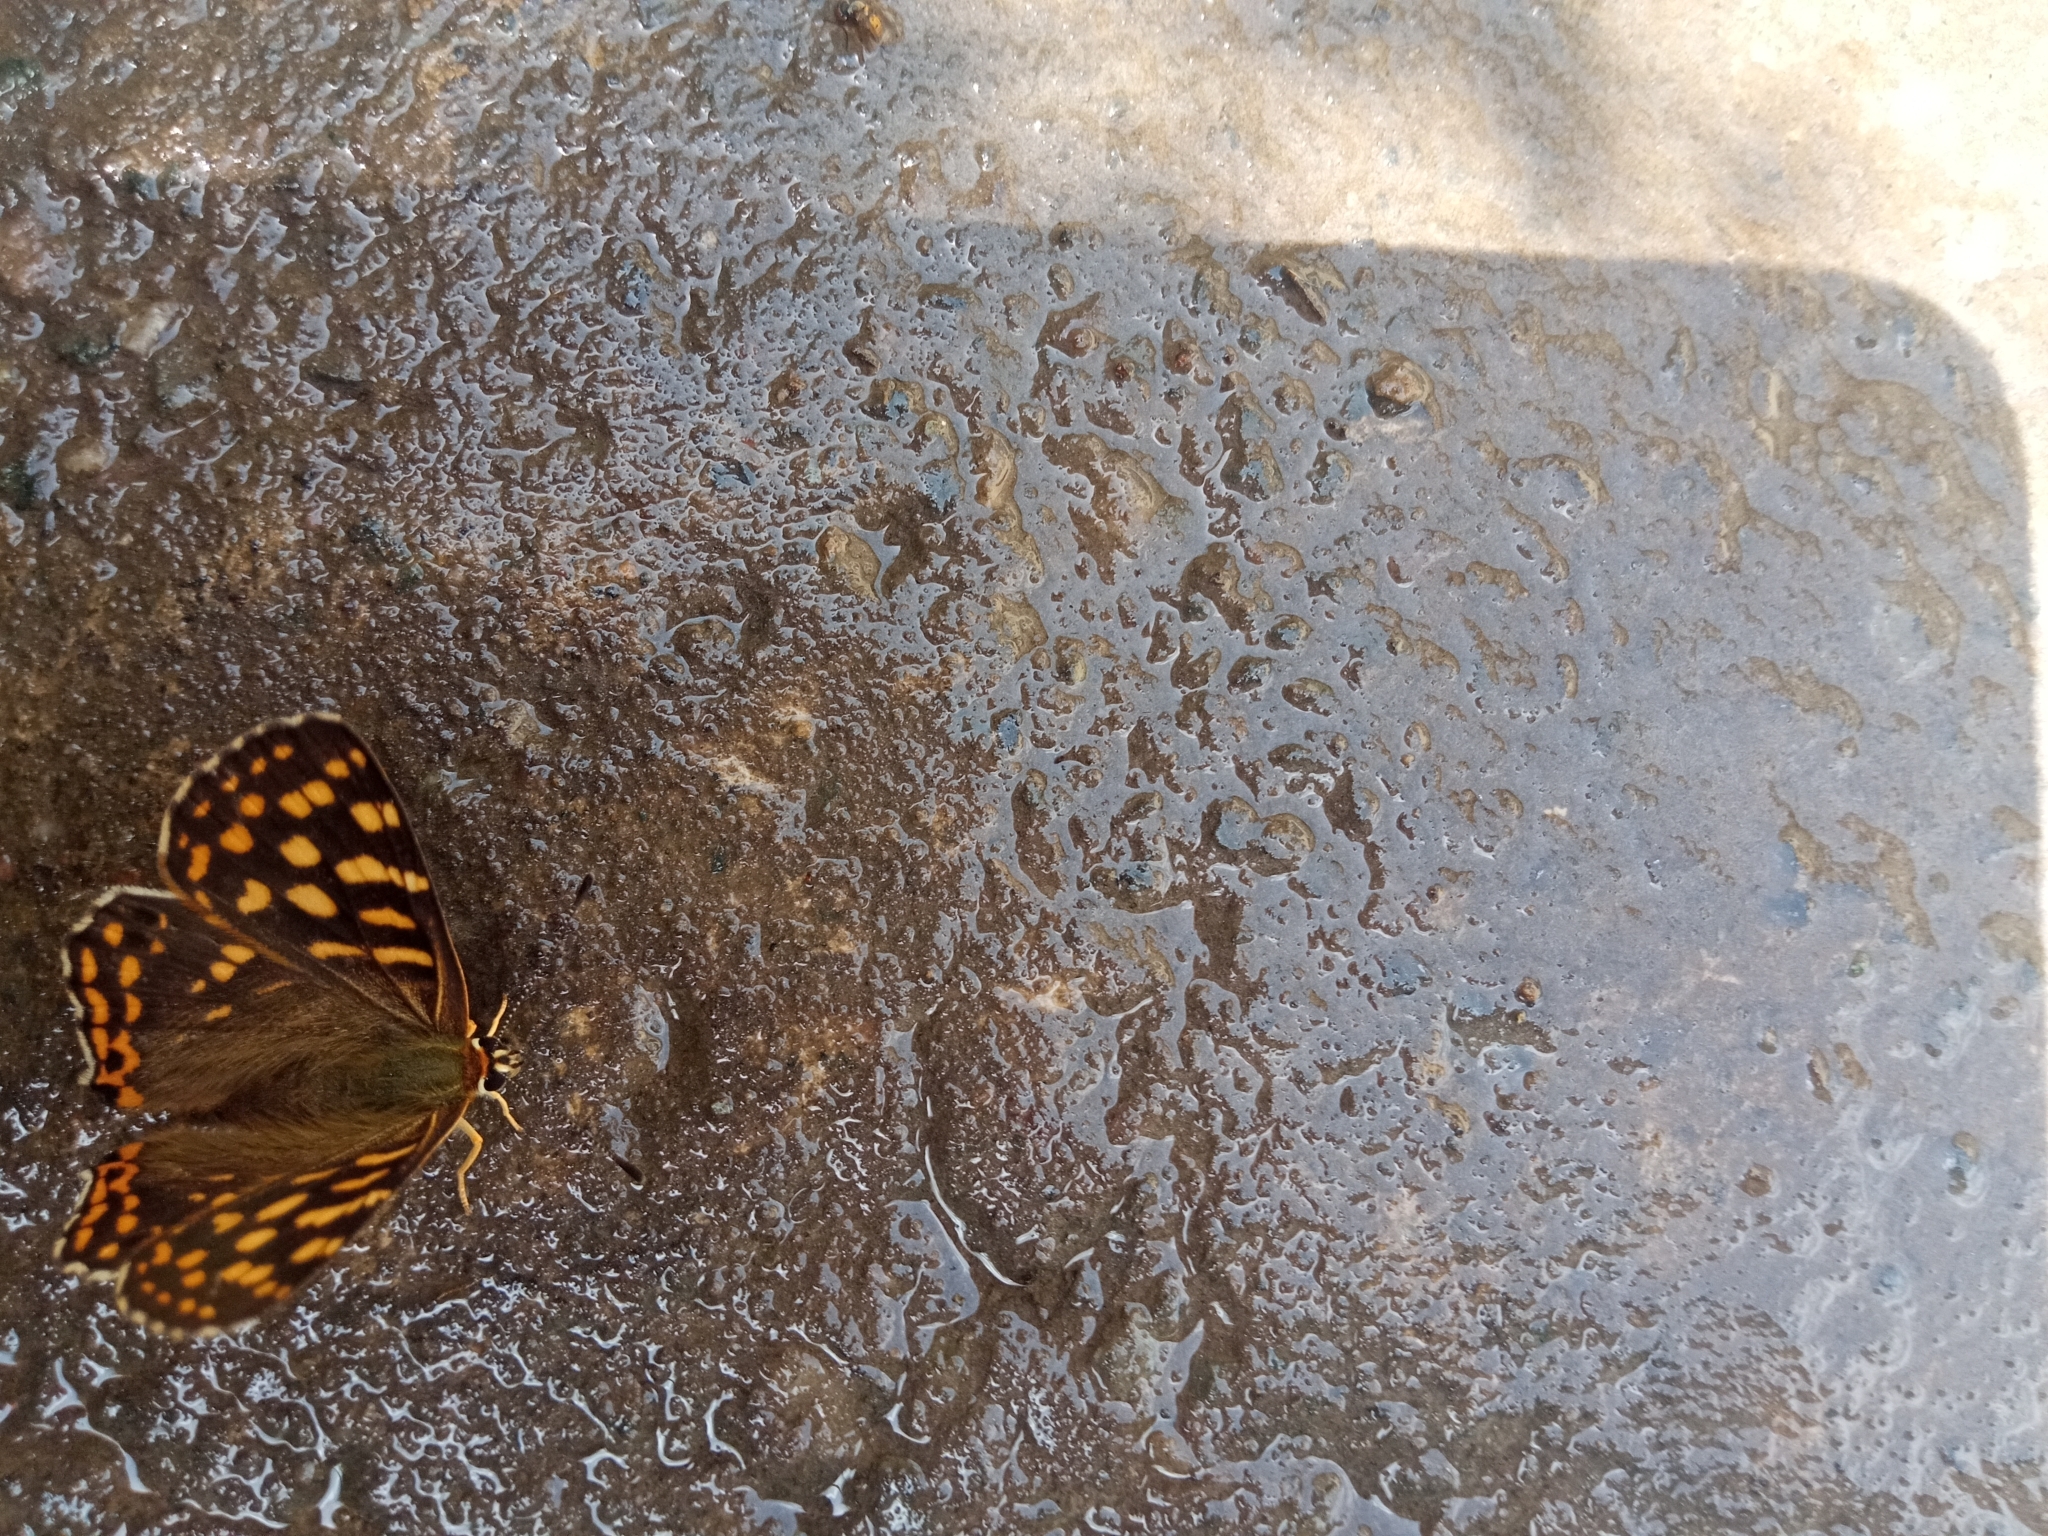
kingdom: Animalia
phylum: Arthropoda
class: Insecta
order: Lepidoptera
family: Lycaenidae
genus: Dodona
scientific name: Dodona durga
